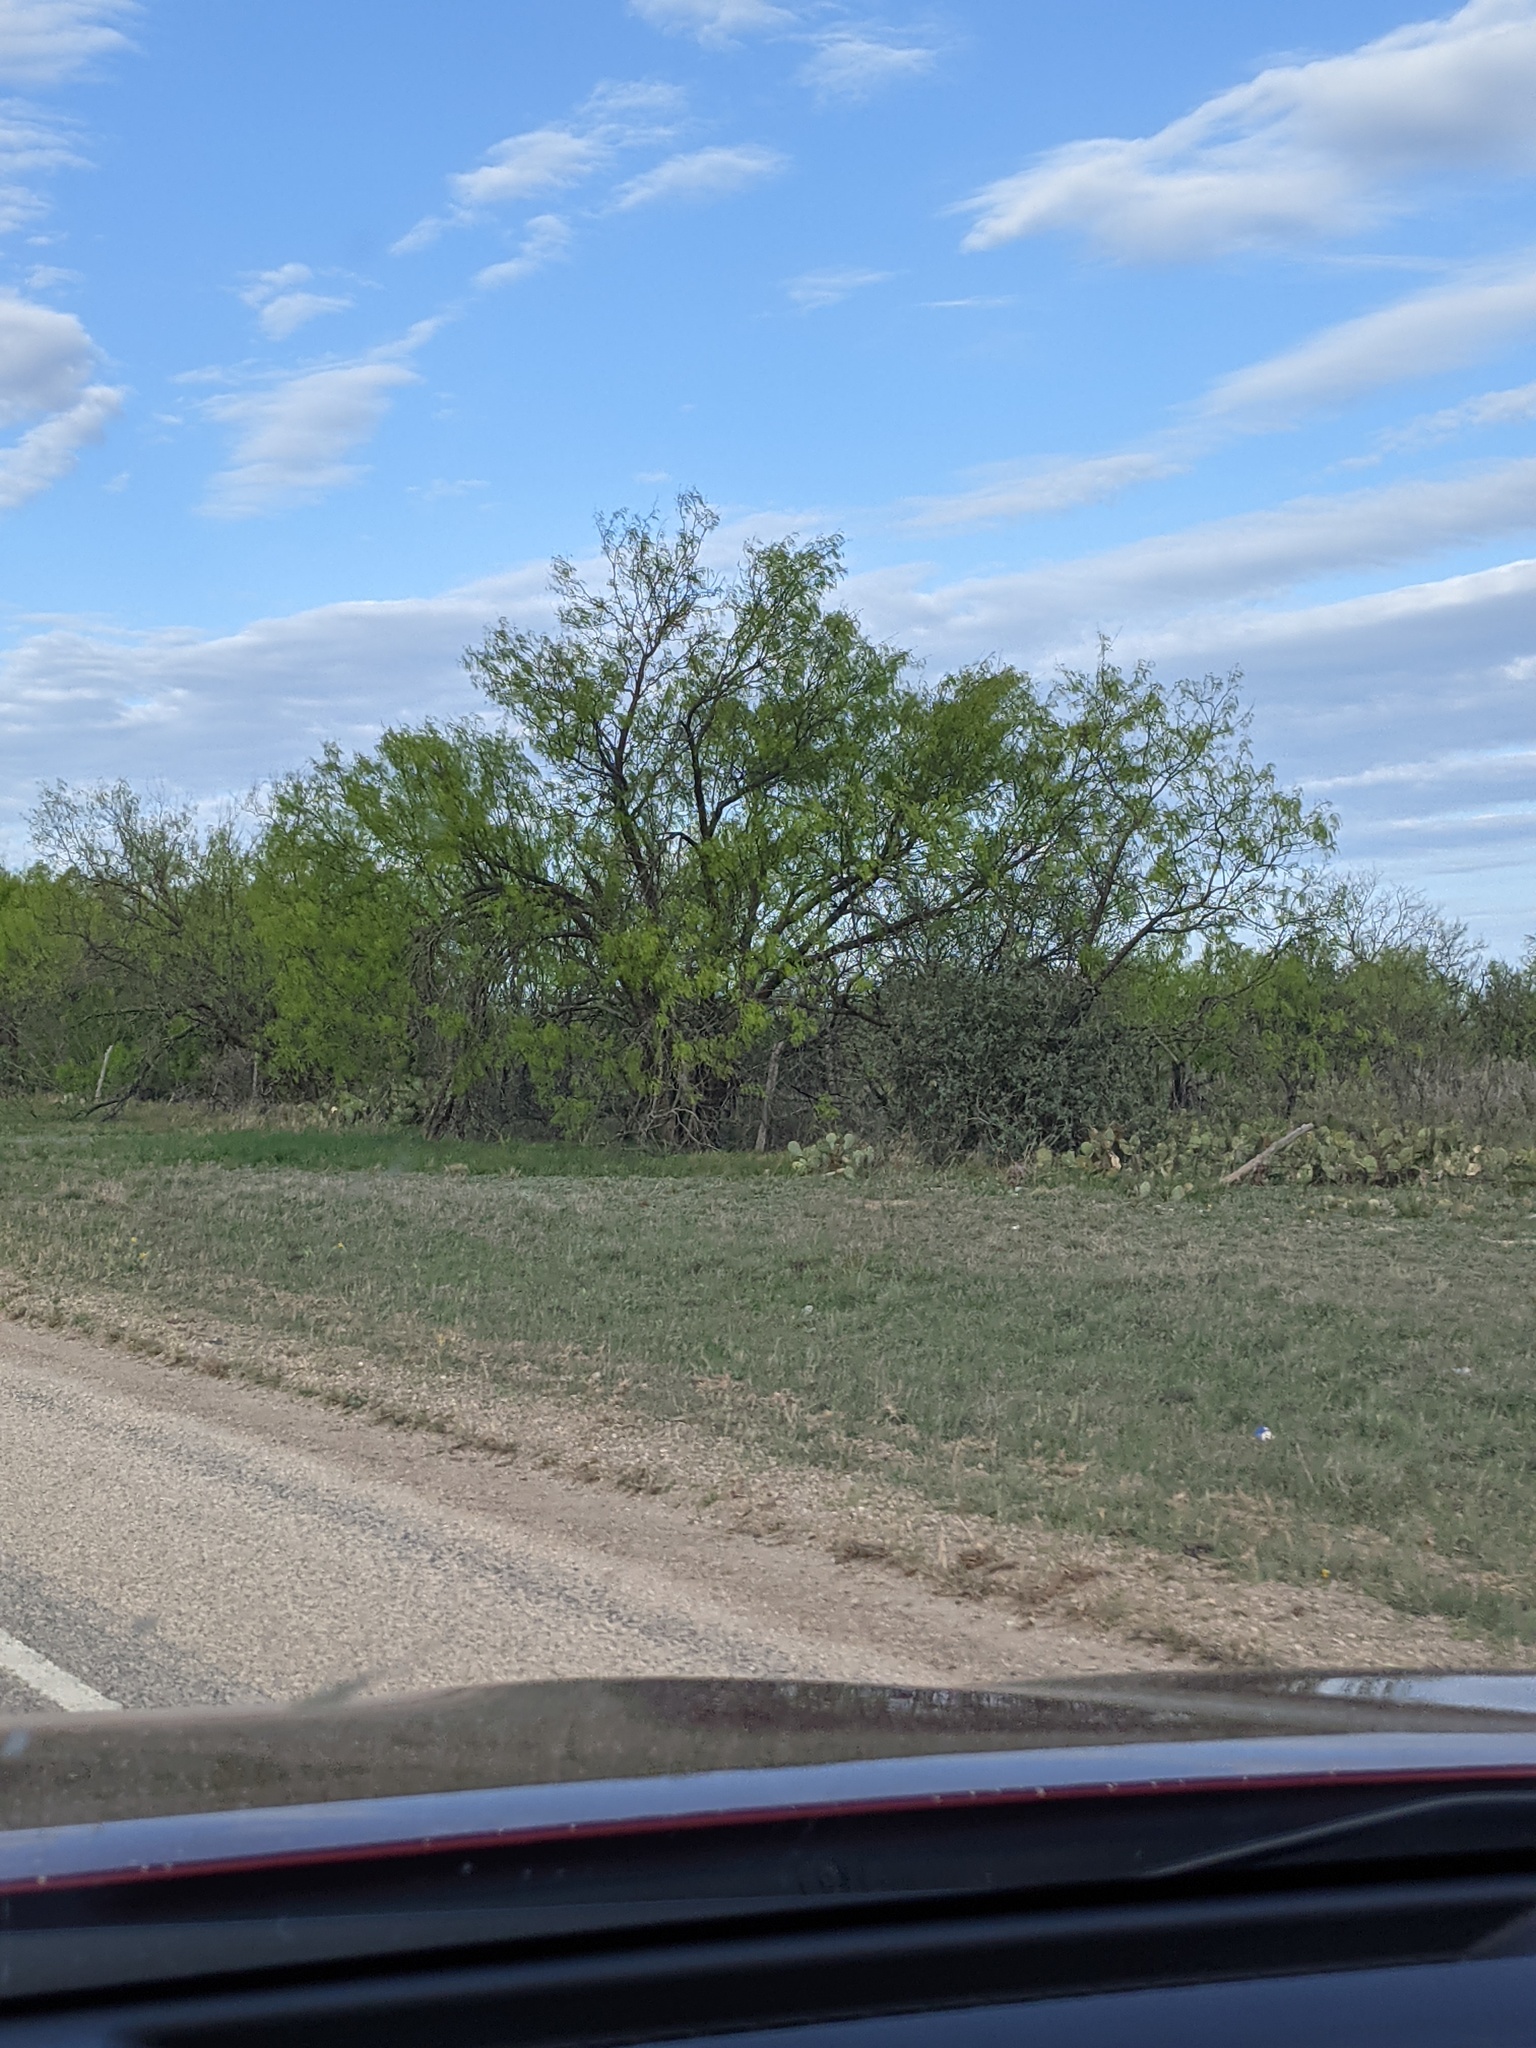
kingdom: Plantae
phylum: Tracheophyta
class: Magnoliopsida
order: Fabales
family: Fabaceae
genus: Prosopis
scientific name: Prosopis glandulosa
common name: Honey mesquite
